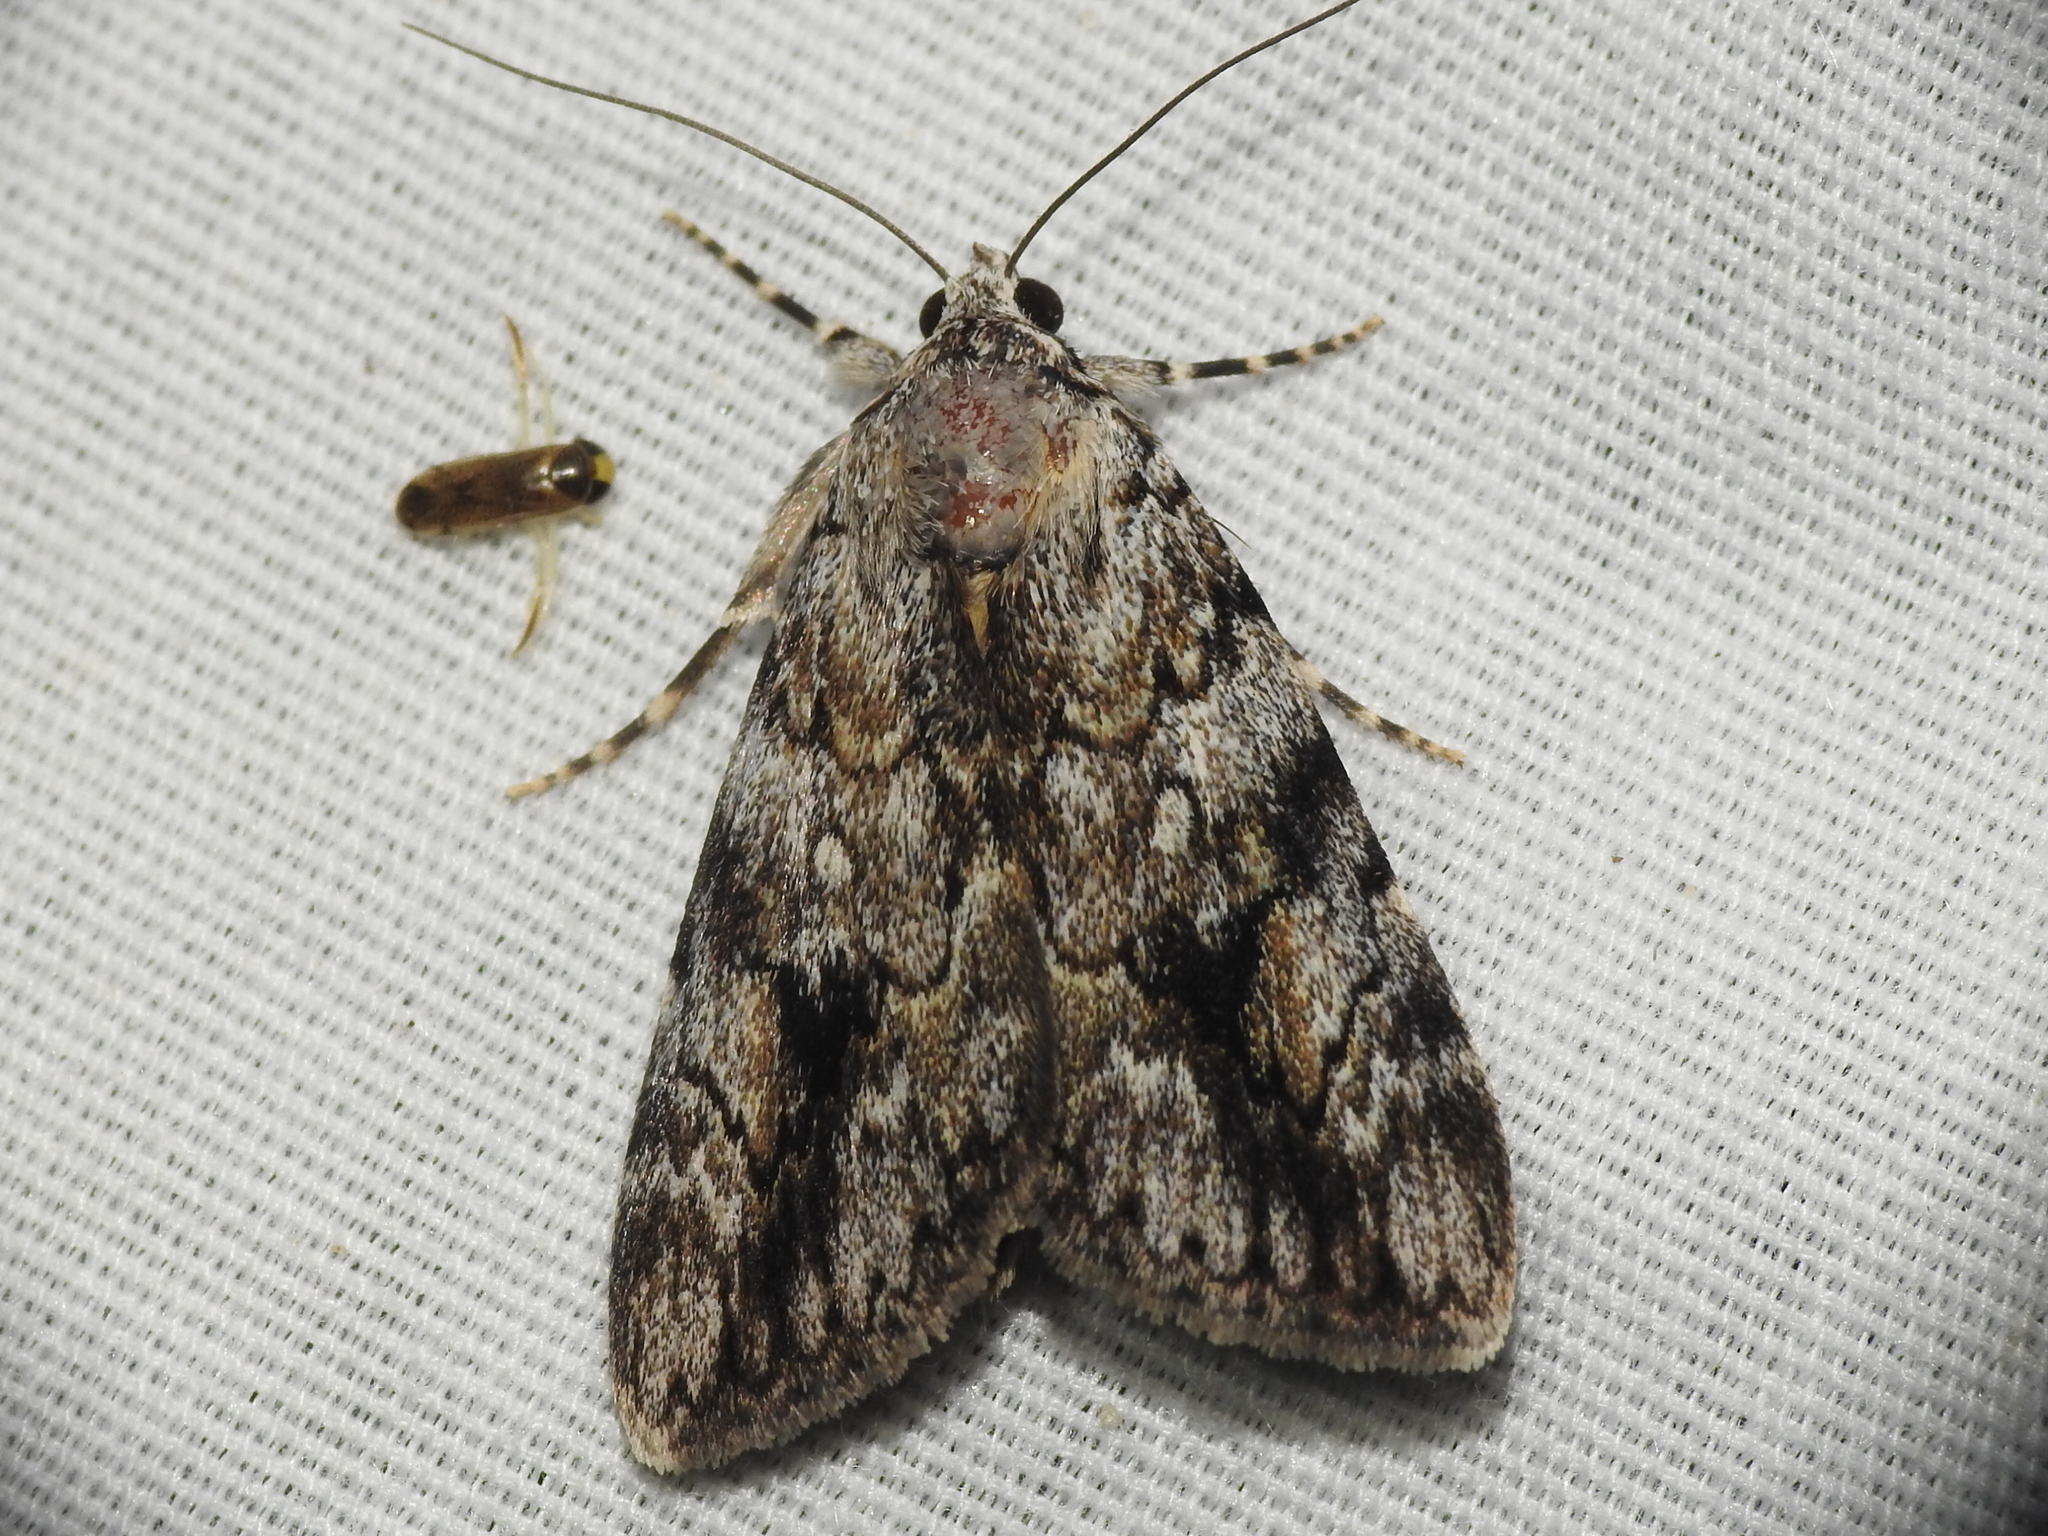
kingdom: Animalia
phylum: Arthropoda
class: Insecta
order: Lepidoptera
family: Erebidae
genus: Catocala
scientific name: Catocala amica
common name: Girlfriend underwing
